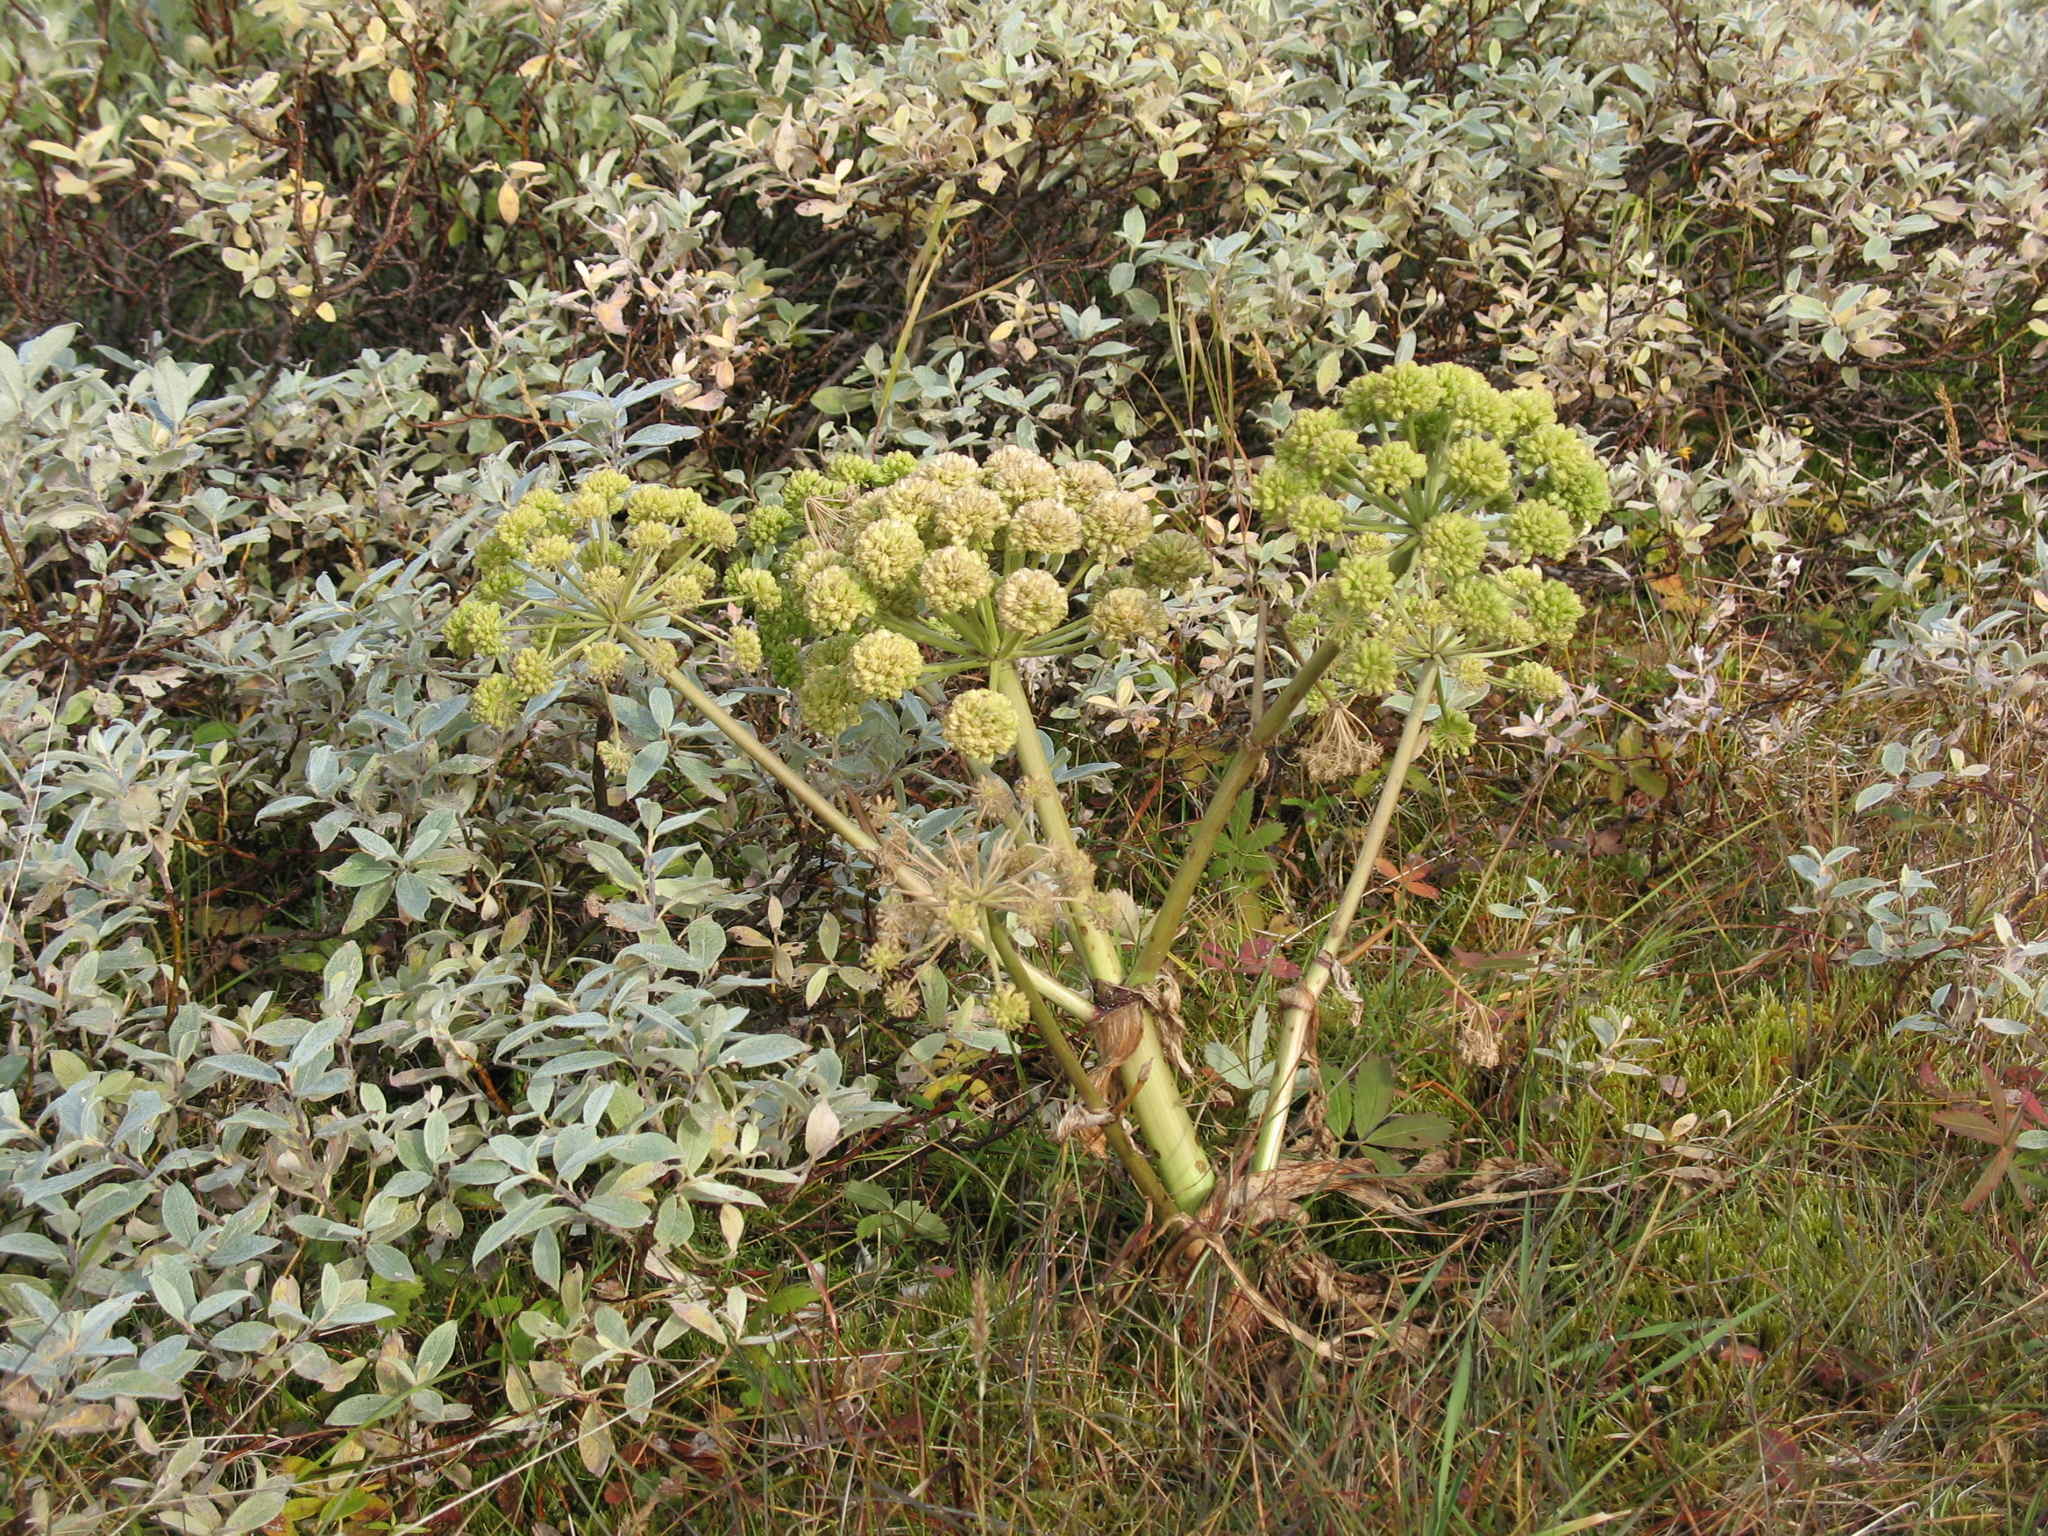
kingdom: Plantae
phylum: Tracheophyta
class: Magnoliopsida
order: Apiales
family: Apiaceae
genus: Angelica
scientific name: Angelica archangelica
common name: Garden angelica
